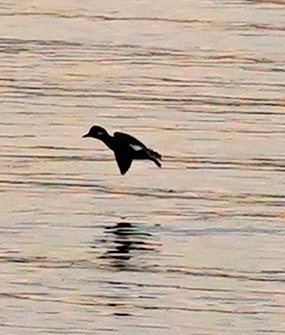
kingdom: Animalia
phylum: Chordata
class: Aves
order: Anseriformes
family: Anatidae
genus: Bucephala
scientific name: Bucephala albeola
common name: Bufflehead
